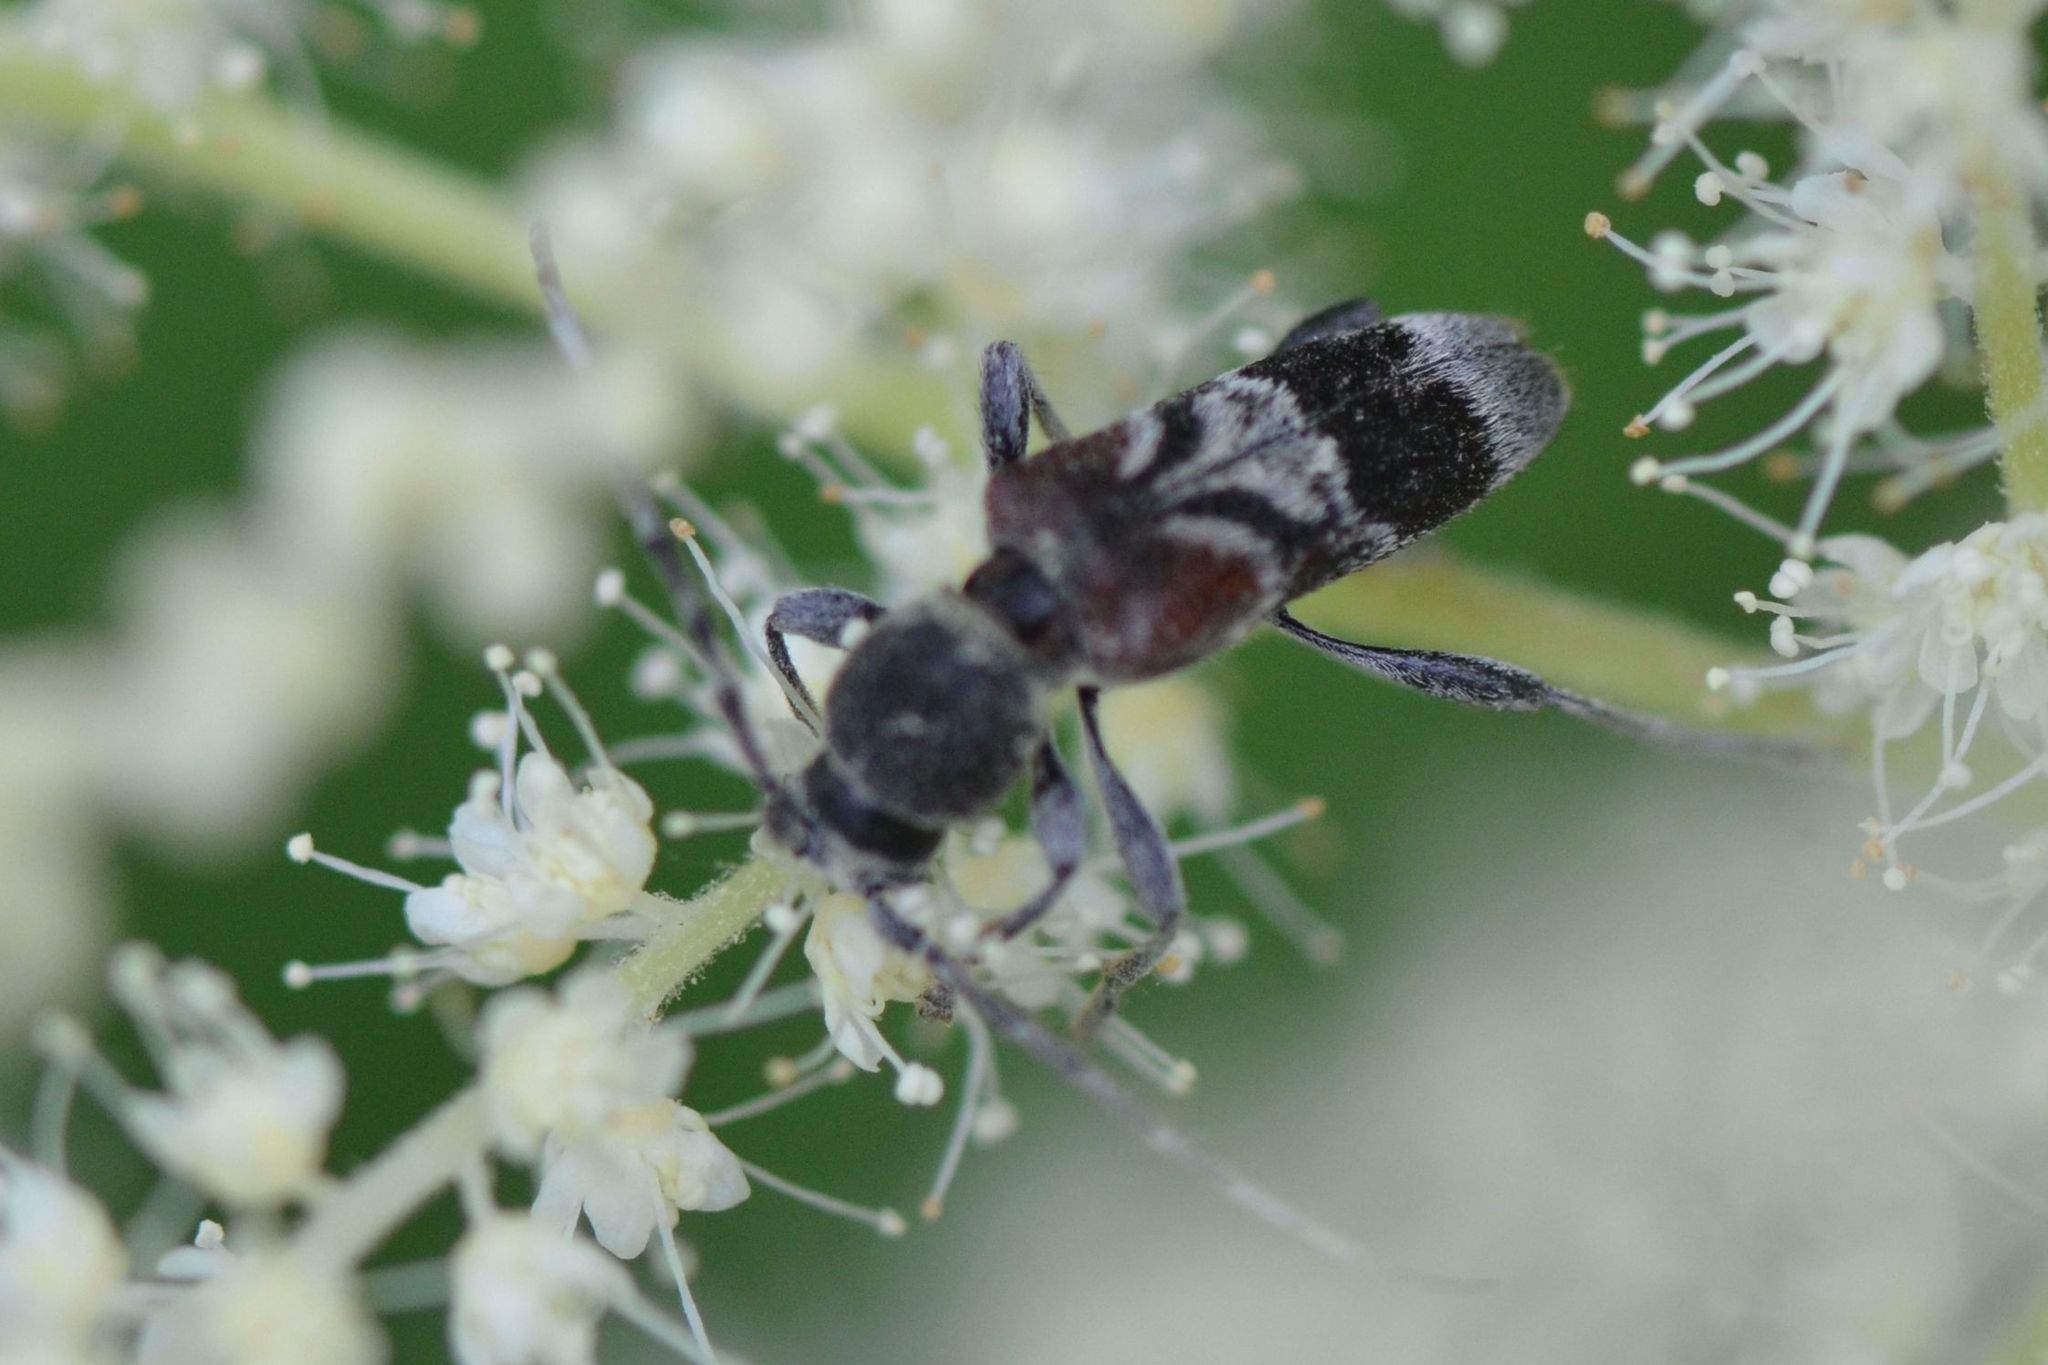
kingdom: Animalia
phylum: Arthropoda
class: Insecta
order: Coleoptera
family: Cerambycidae
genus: Anaglyptus
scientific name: Anaglyptus mysticus
